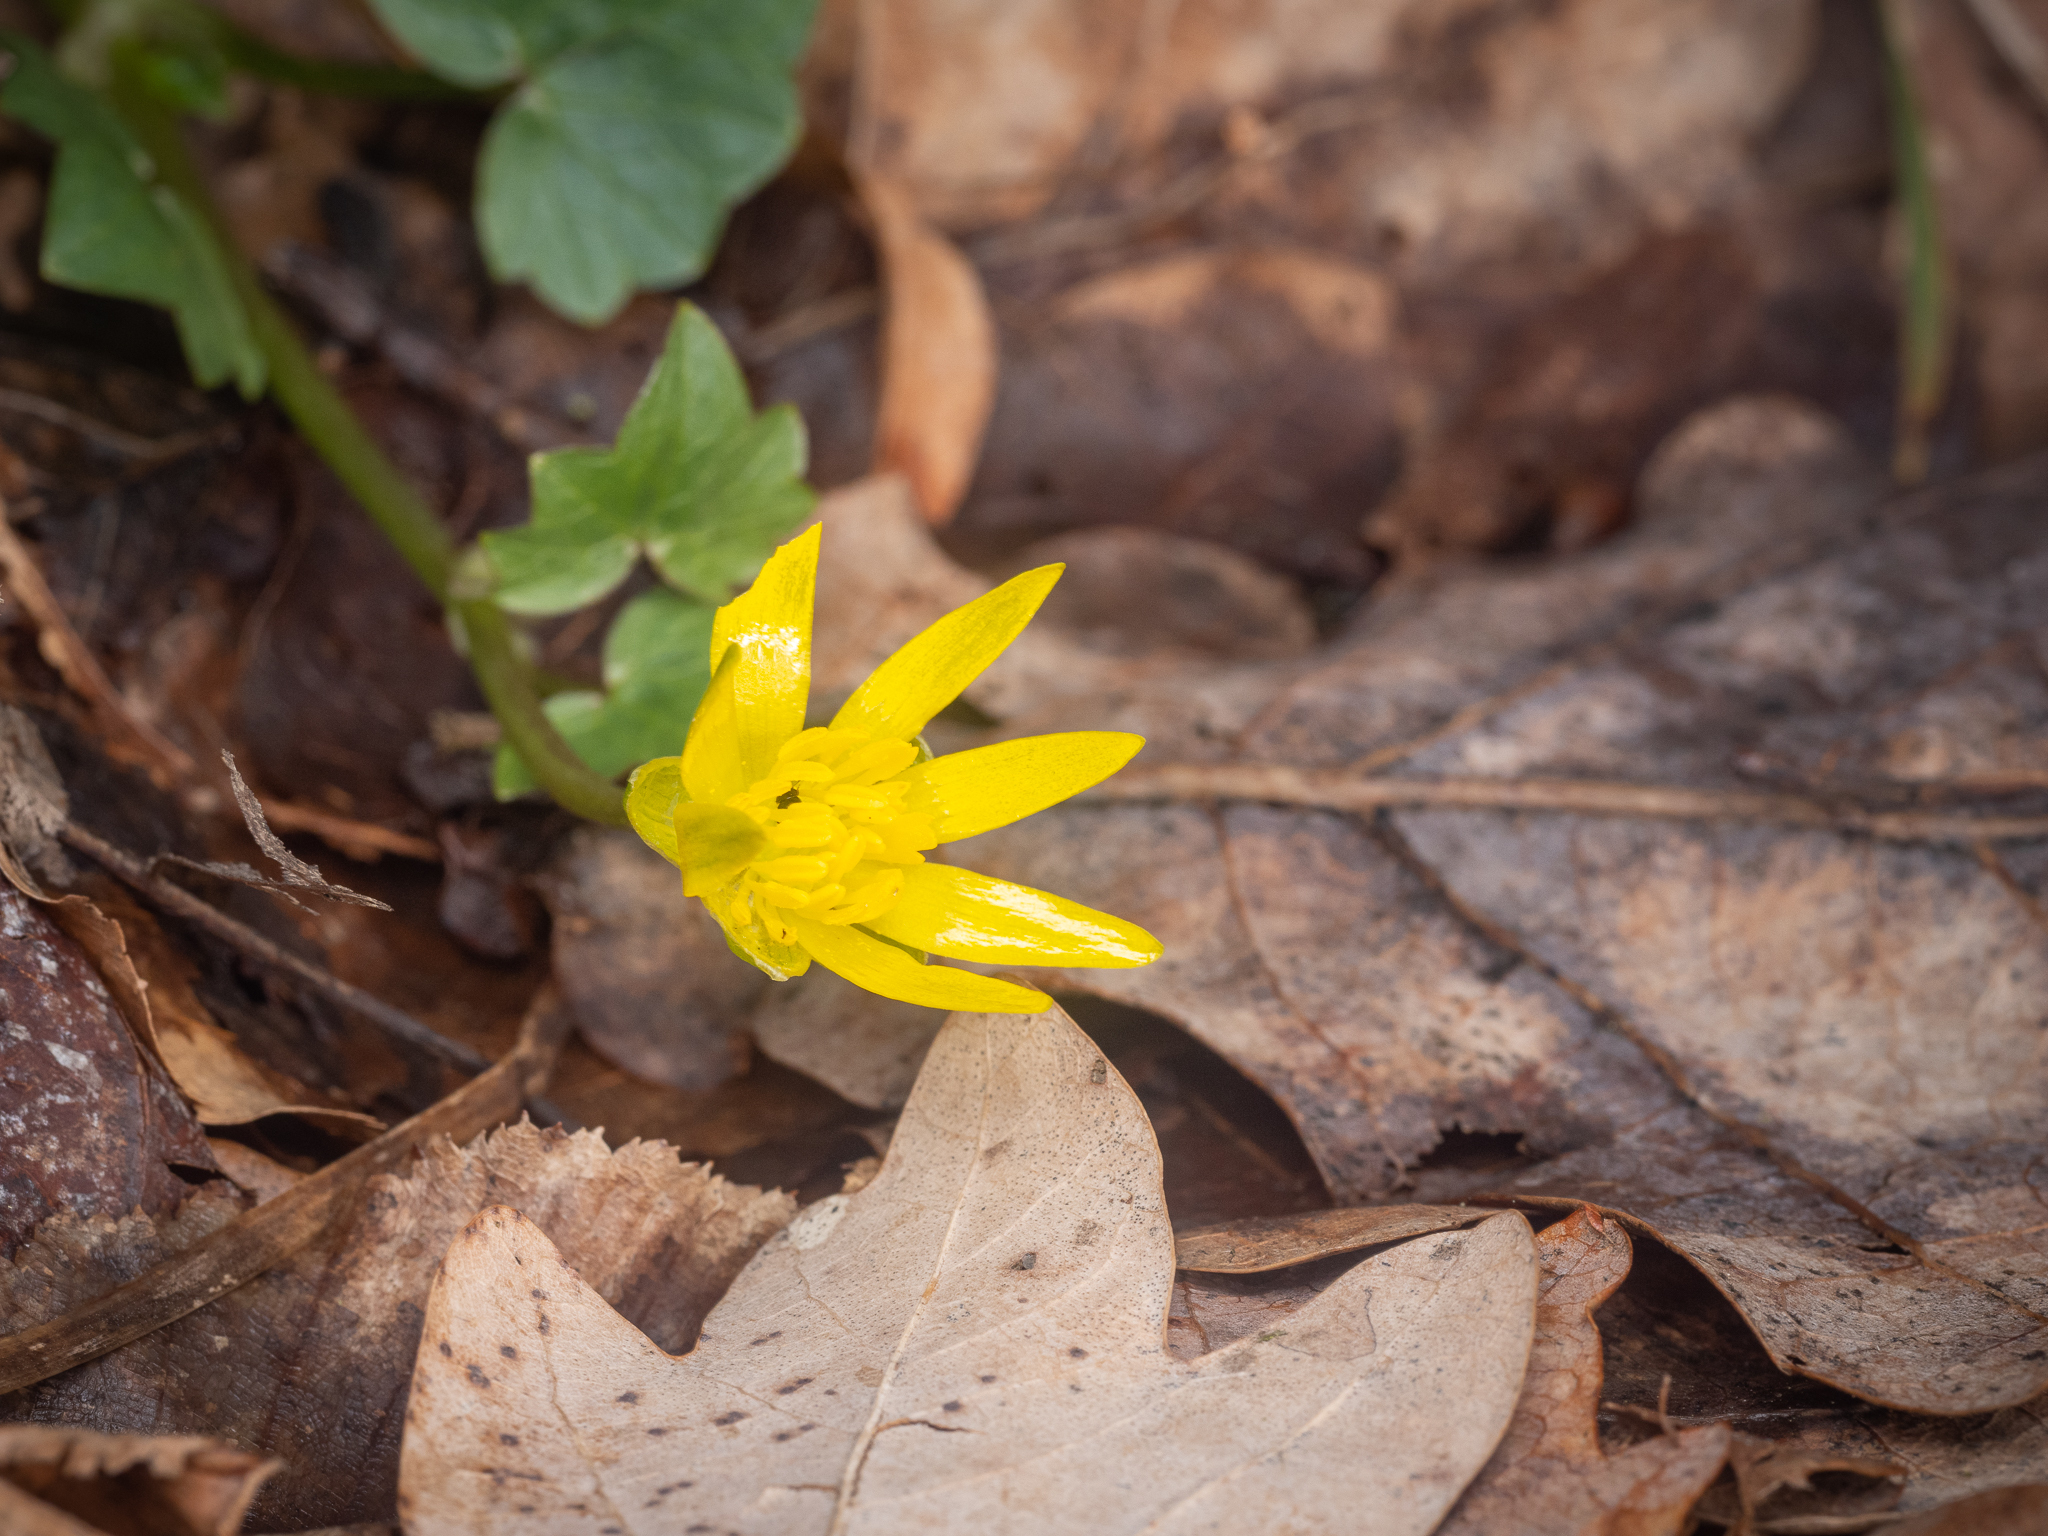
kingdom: Plantae
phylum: Tracheophyta
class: Magnoliopsida
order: Ranunculales
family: Ranunculaceae
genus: Ficaria
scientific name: Ficaria verna
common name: Lesser celandine
